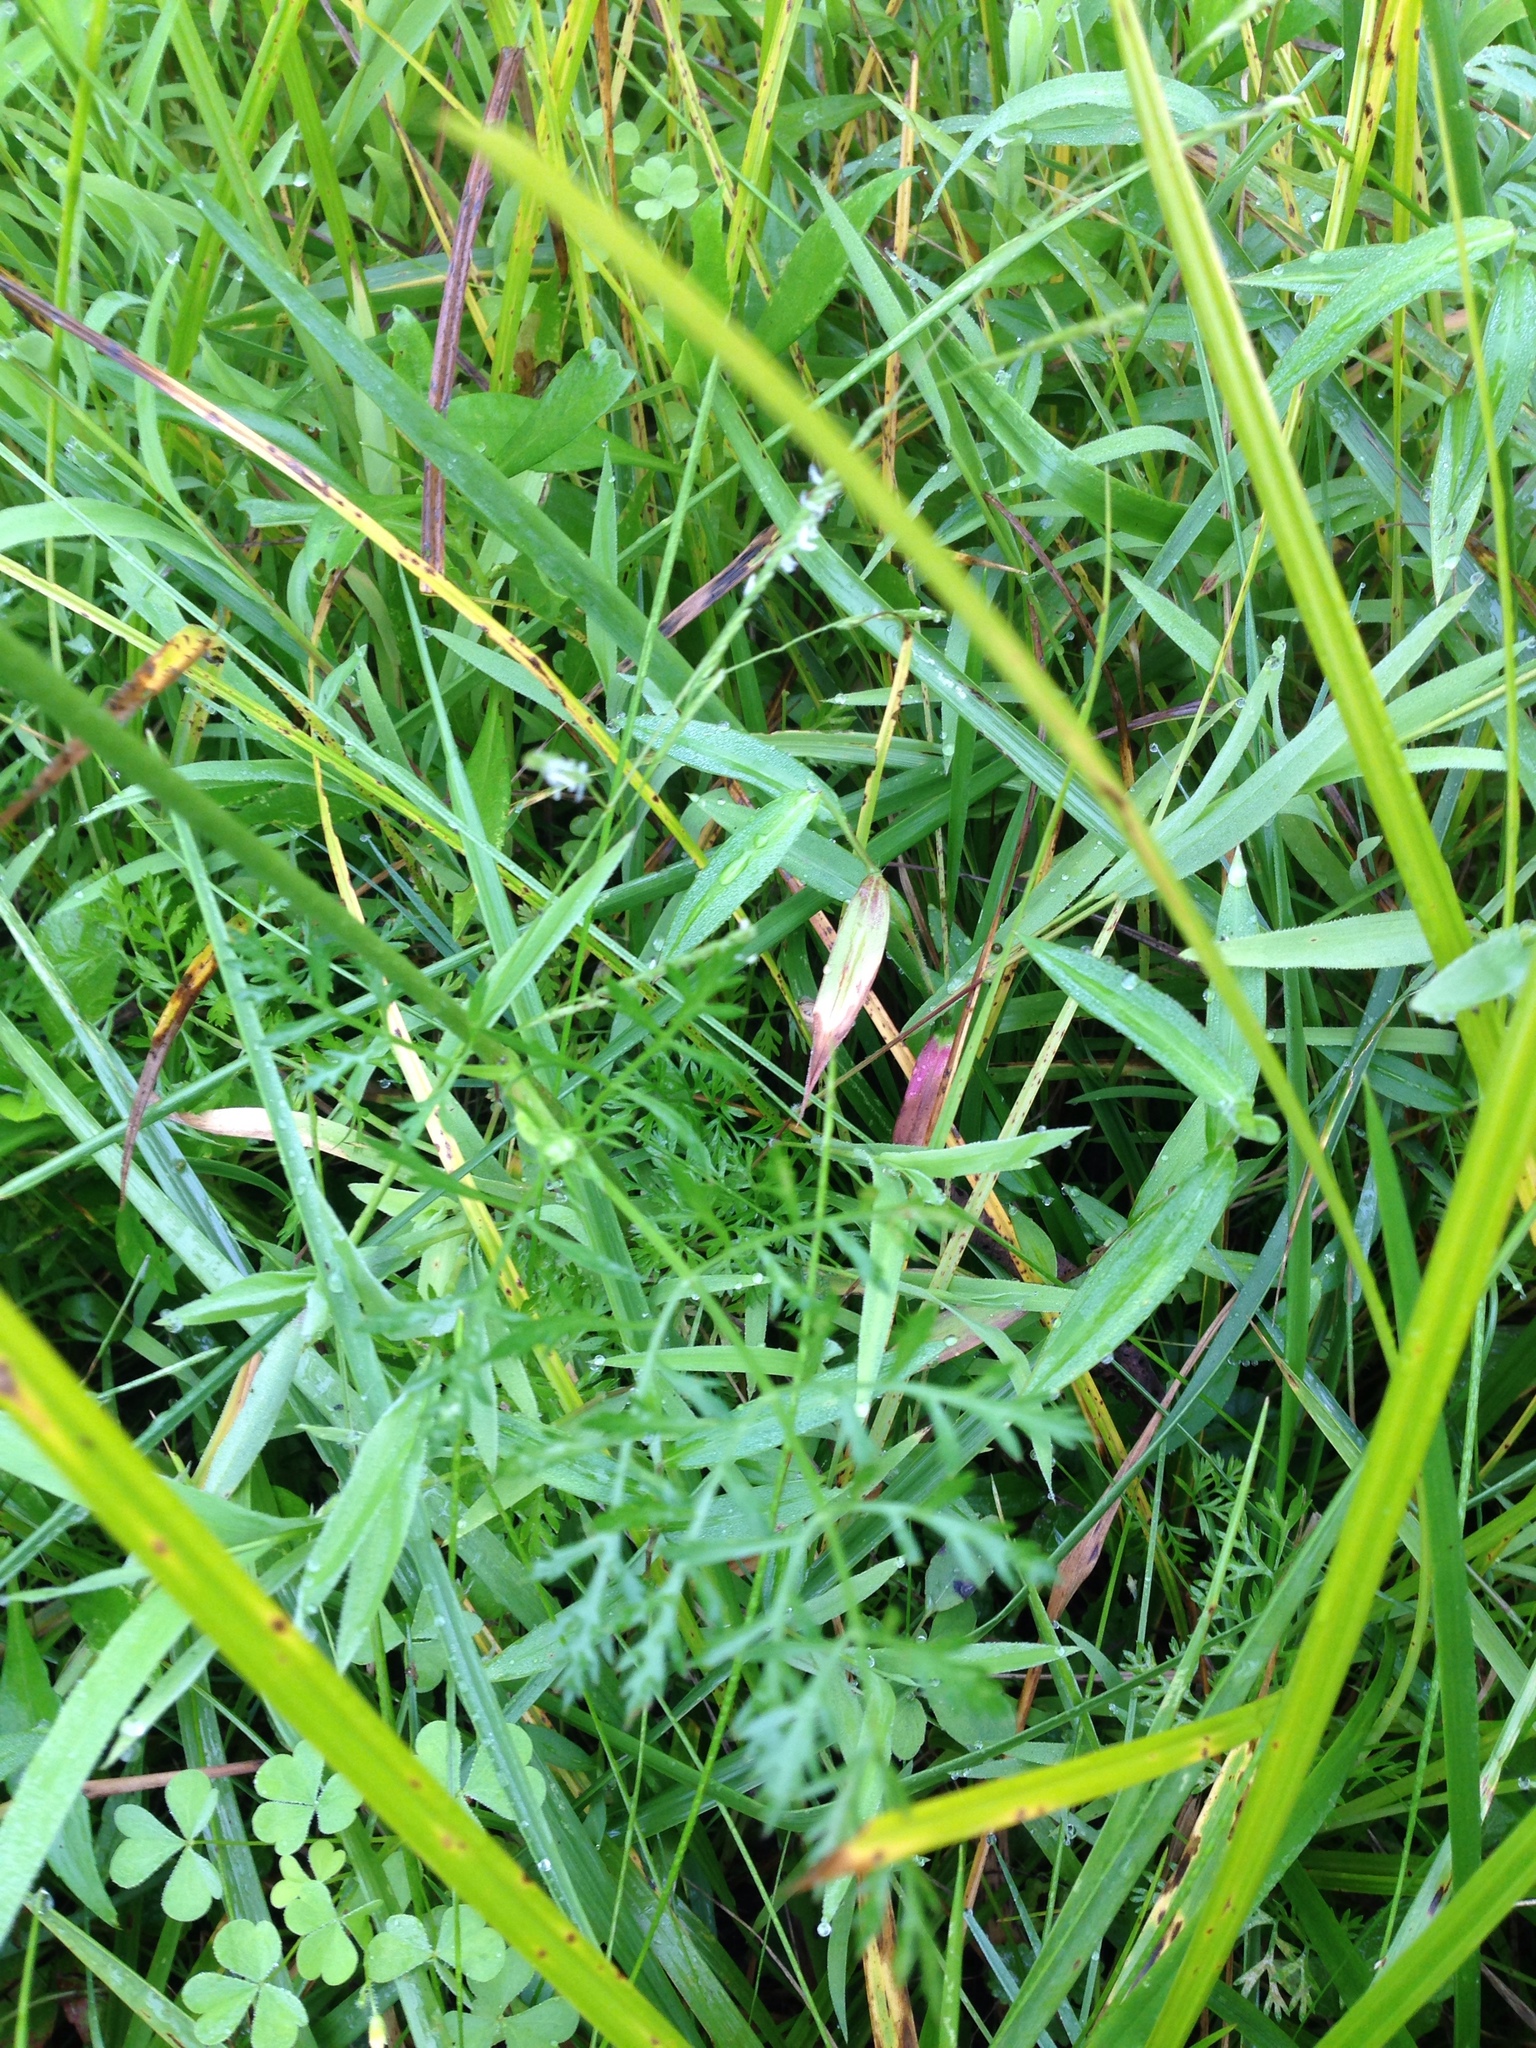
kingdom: Plantae
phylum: Tracheophyta
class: Magnoliopsida
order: Apiales
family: Apiaceae
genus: Daucus
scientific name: Daucus carota
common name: Wild carrot
